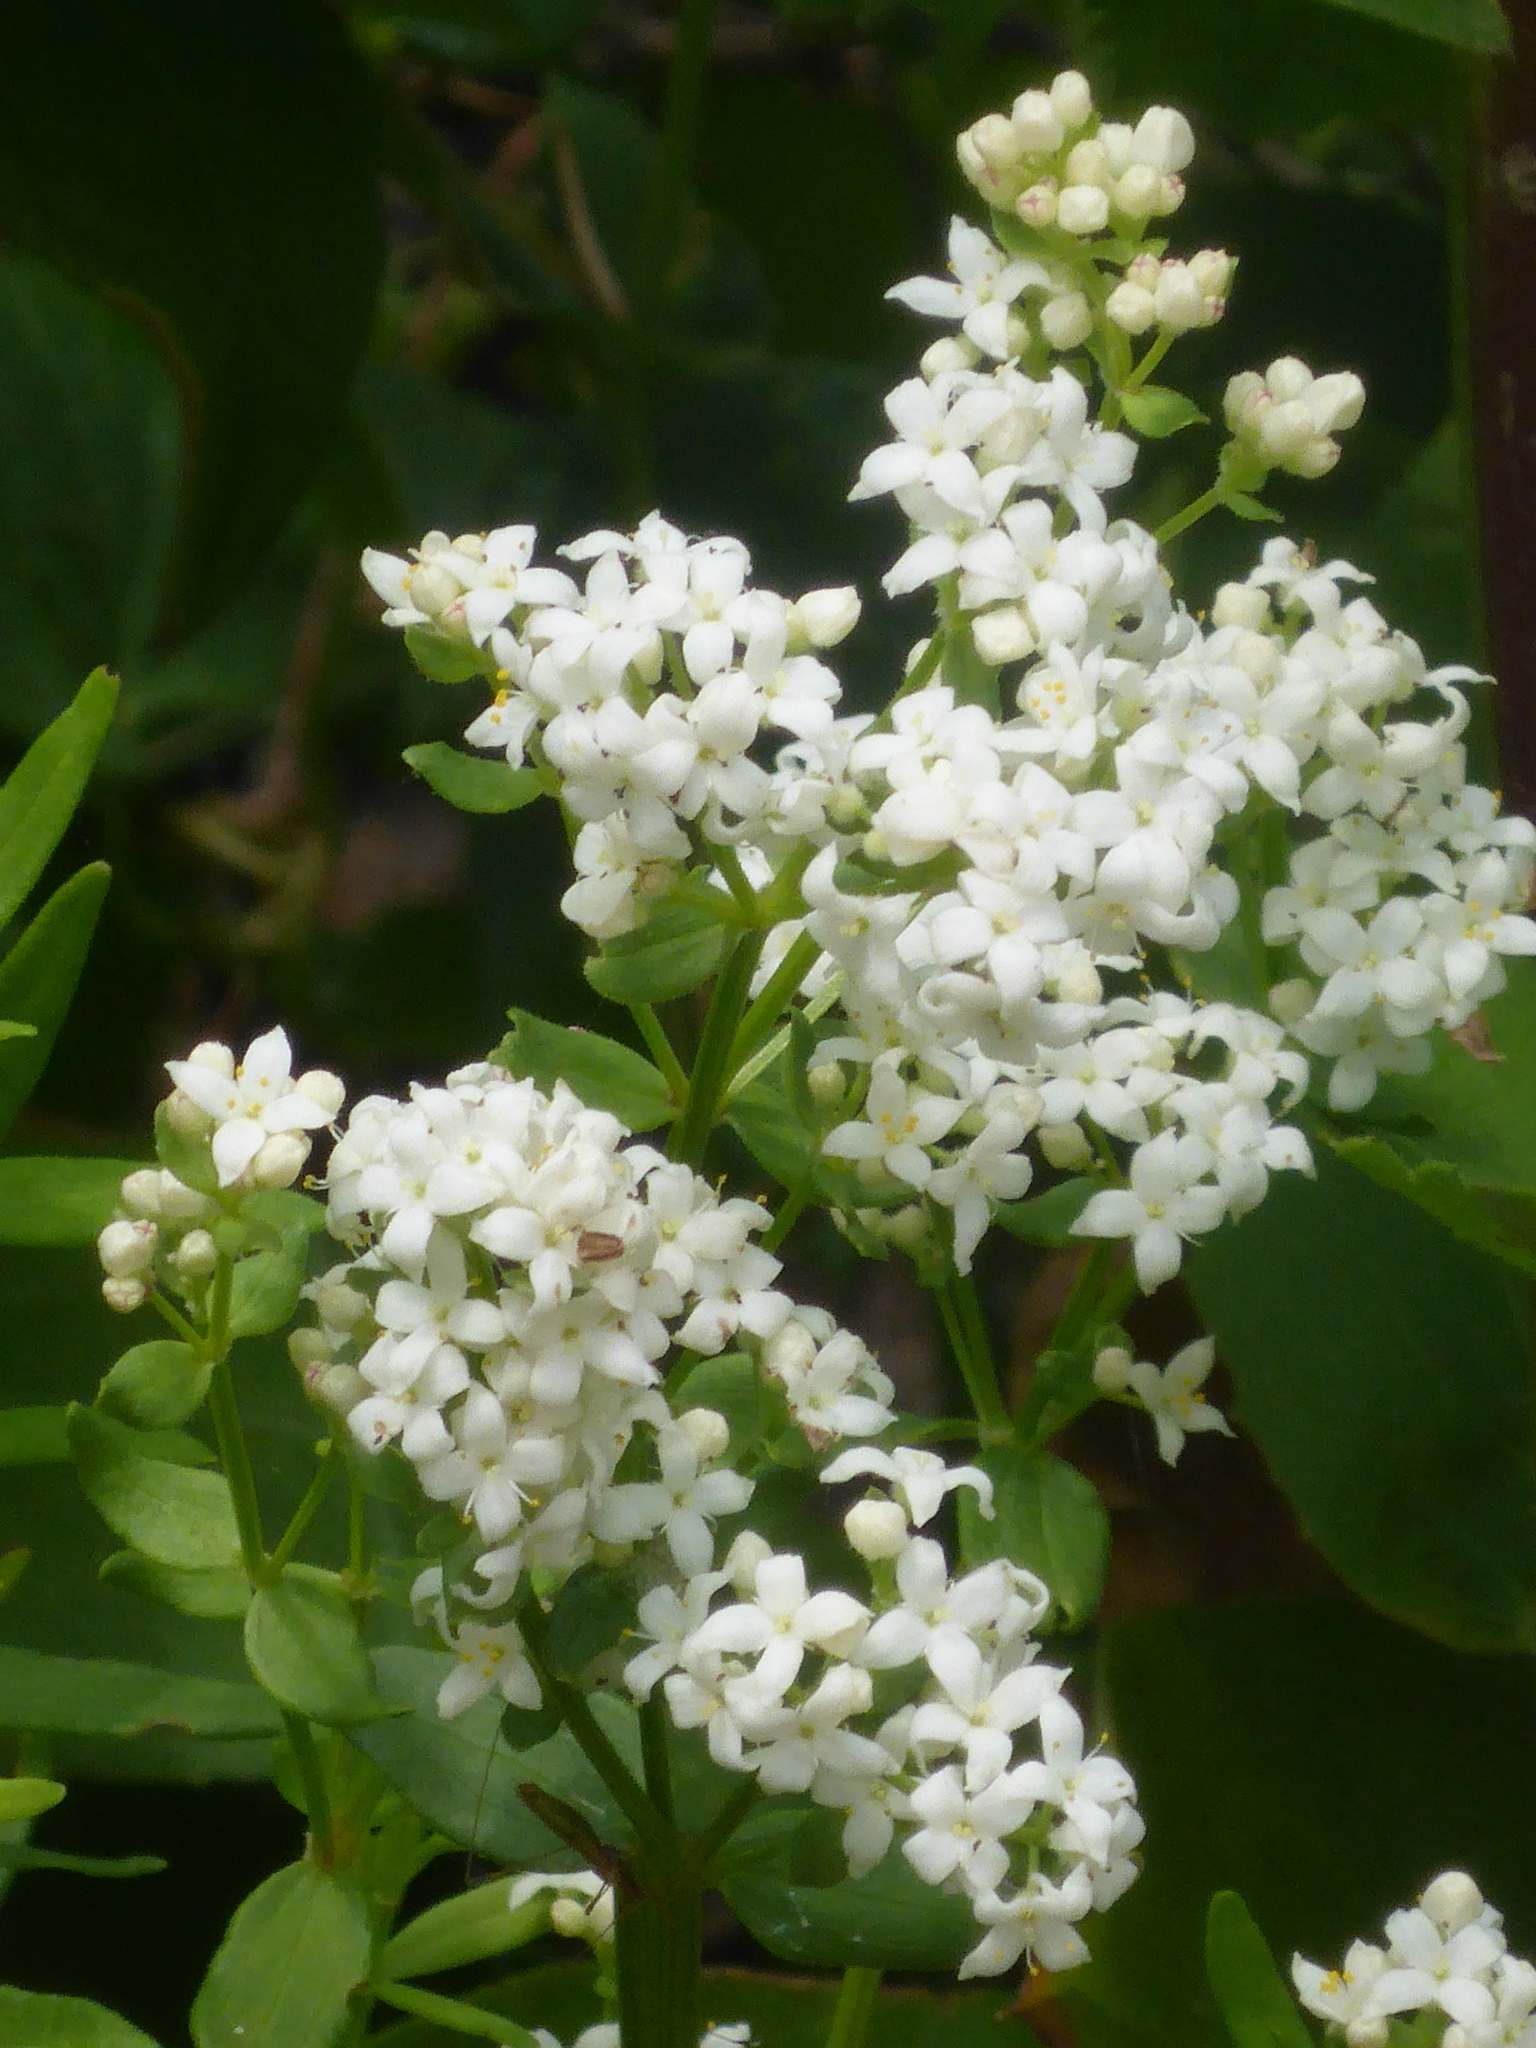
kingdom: Plantae
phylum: Tracheophyta
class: Magnoliopsida
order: Gentianales
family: Rubiaceae
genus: Galium
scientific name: Galium boreale
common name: Northern bedstraw
